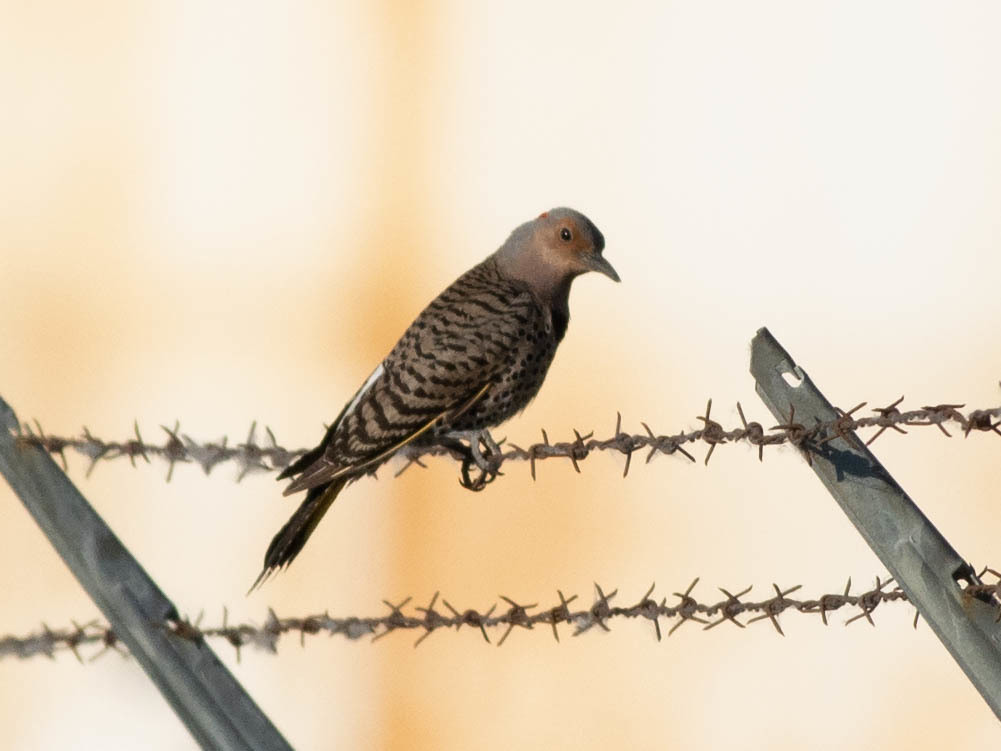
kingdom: Animalia
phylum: Chordata
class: Aves
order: Piciformes
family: Picidae
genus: Colaptes
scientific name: Colaptes auratus
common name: Northern flicker
